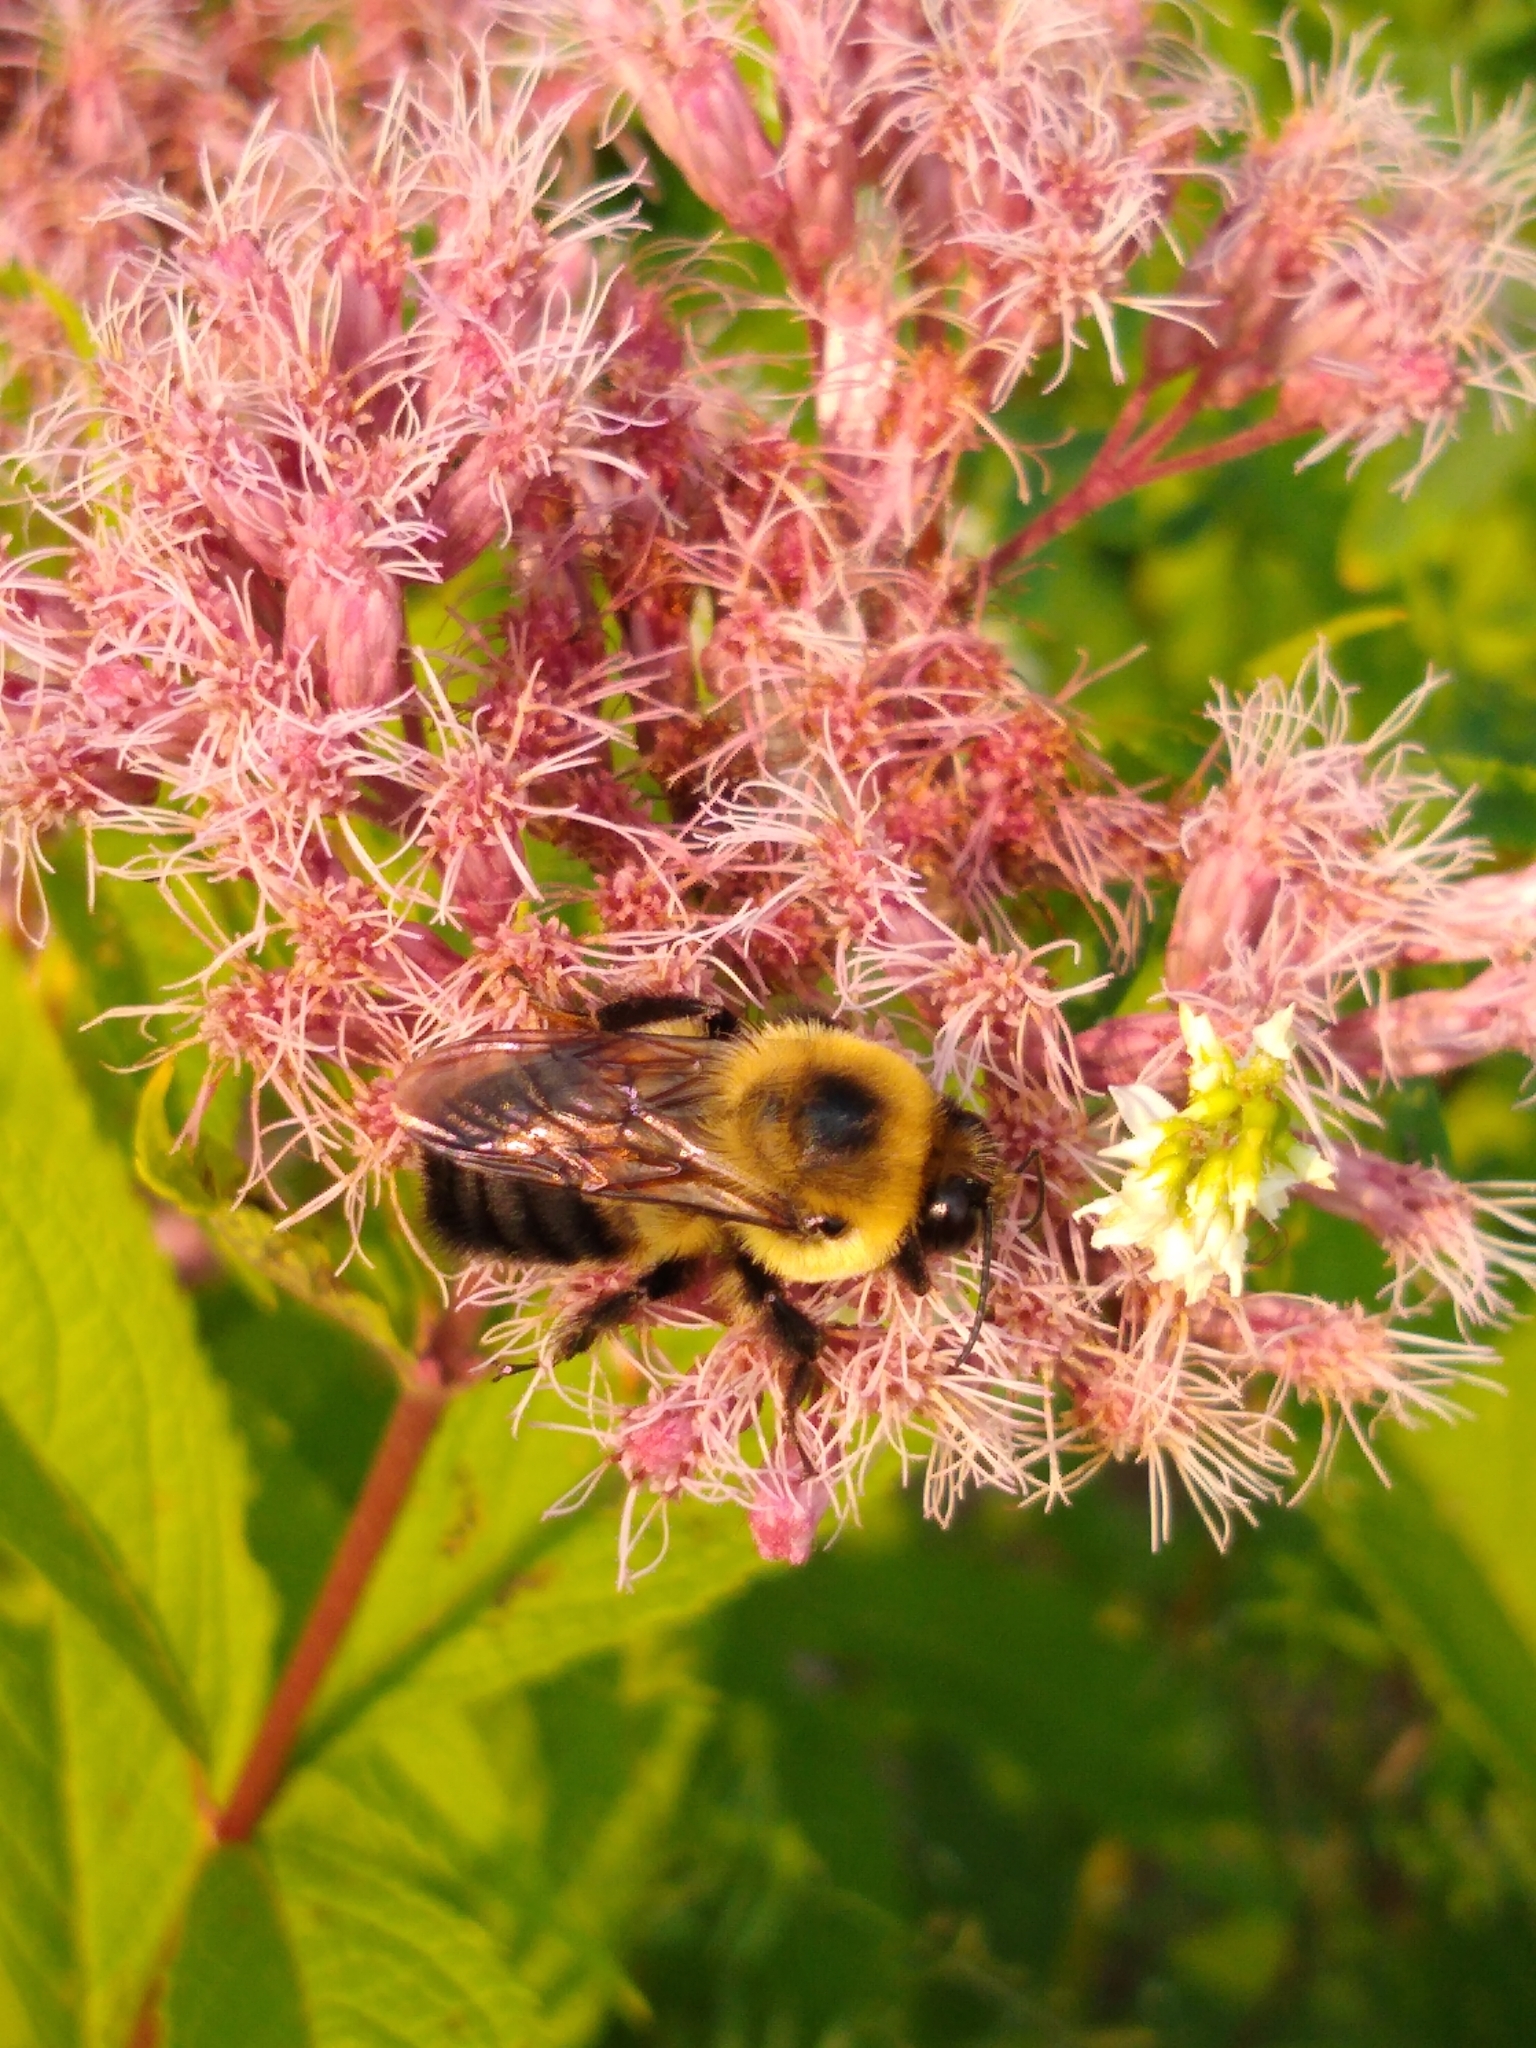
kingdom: Animalia
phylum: Arthropoda
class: Insecta
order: Hymenoptera
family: Apidae
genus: Bombus
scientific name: Bombus griseocollis
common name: Brown-belted bumble bee
